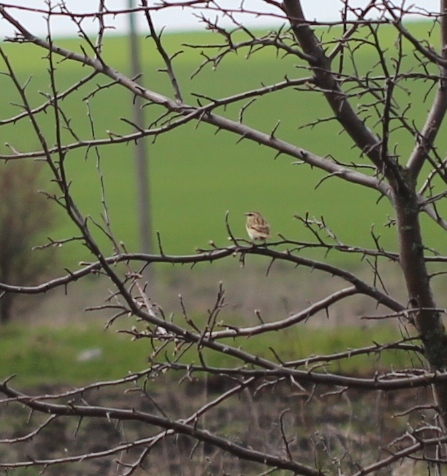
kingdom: Animalia
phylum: Chordata
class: Aves
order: Passeriformes
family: Muscicapidae
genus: Saxicola
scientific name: Saxicola rubetra
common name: Whinchat
